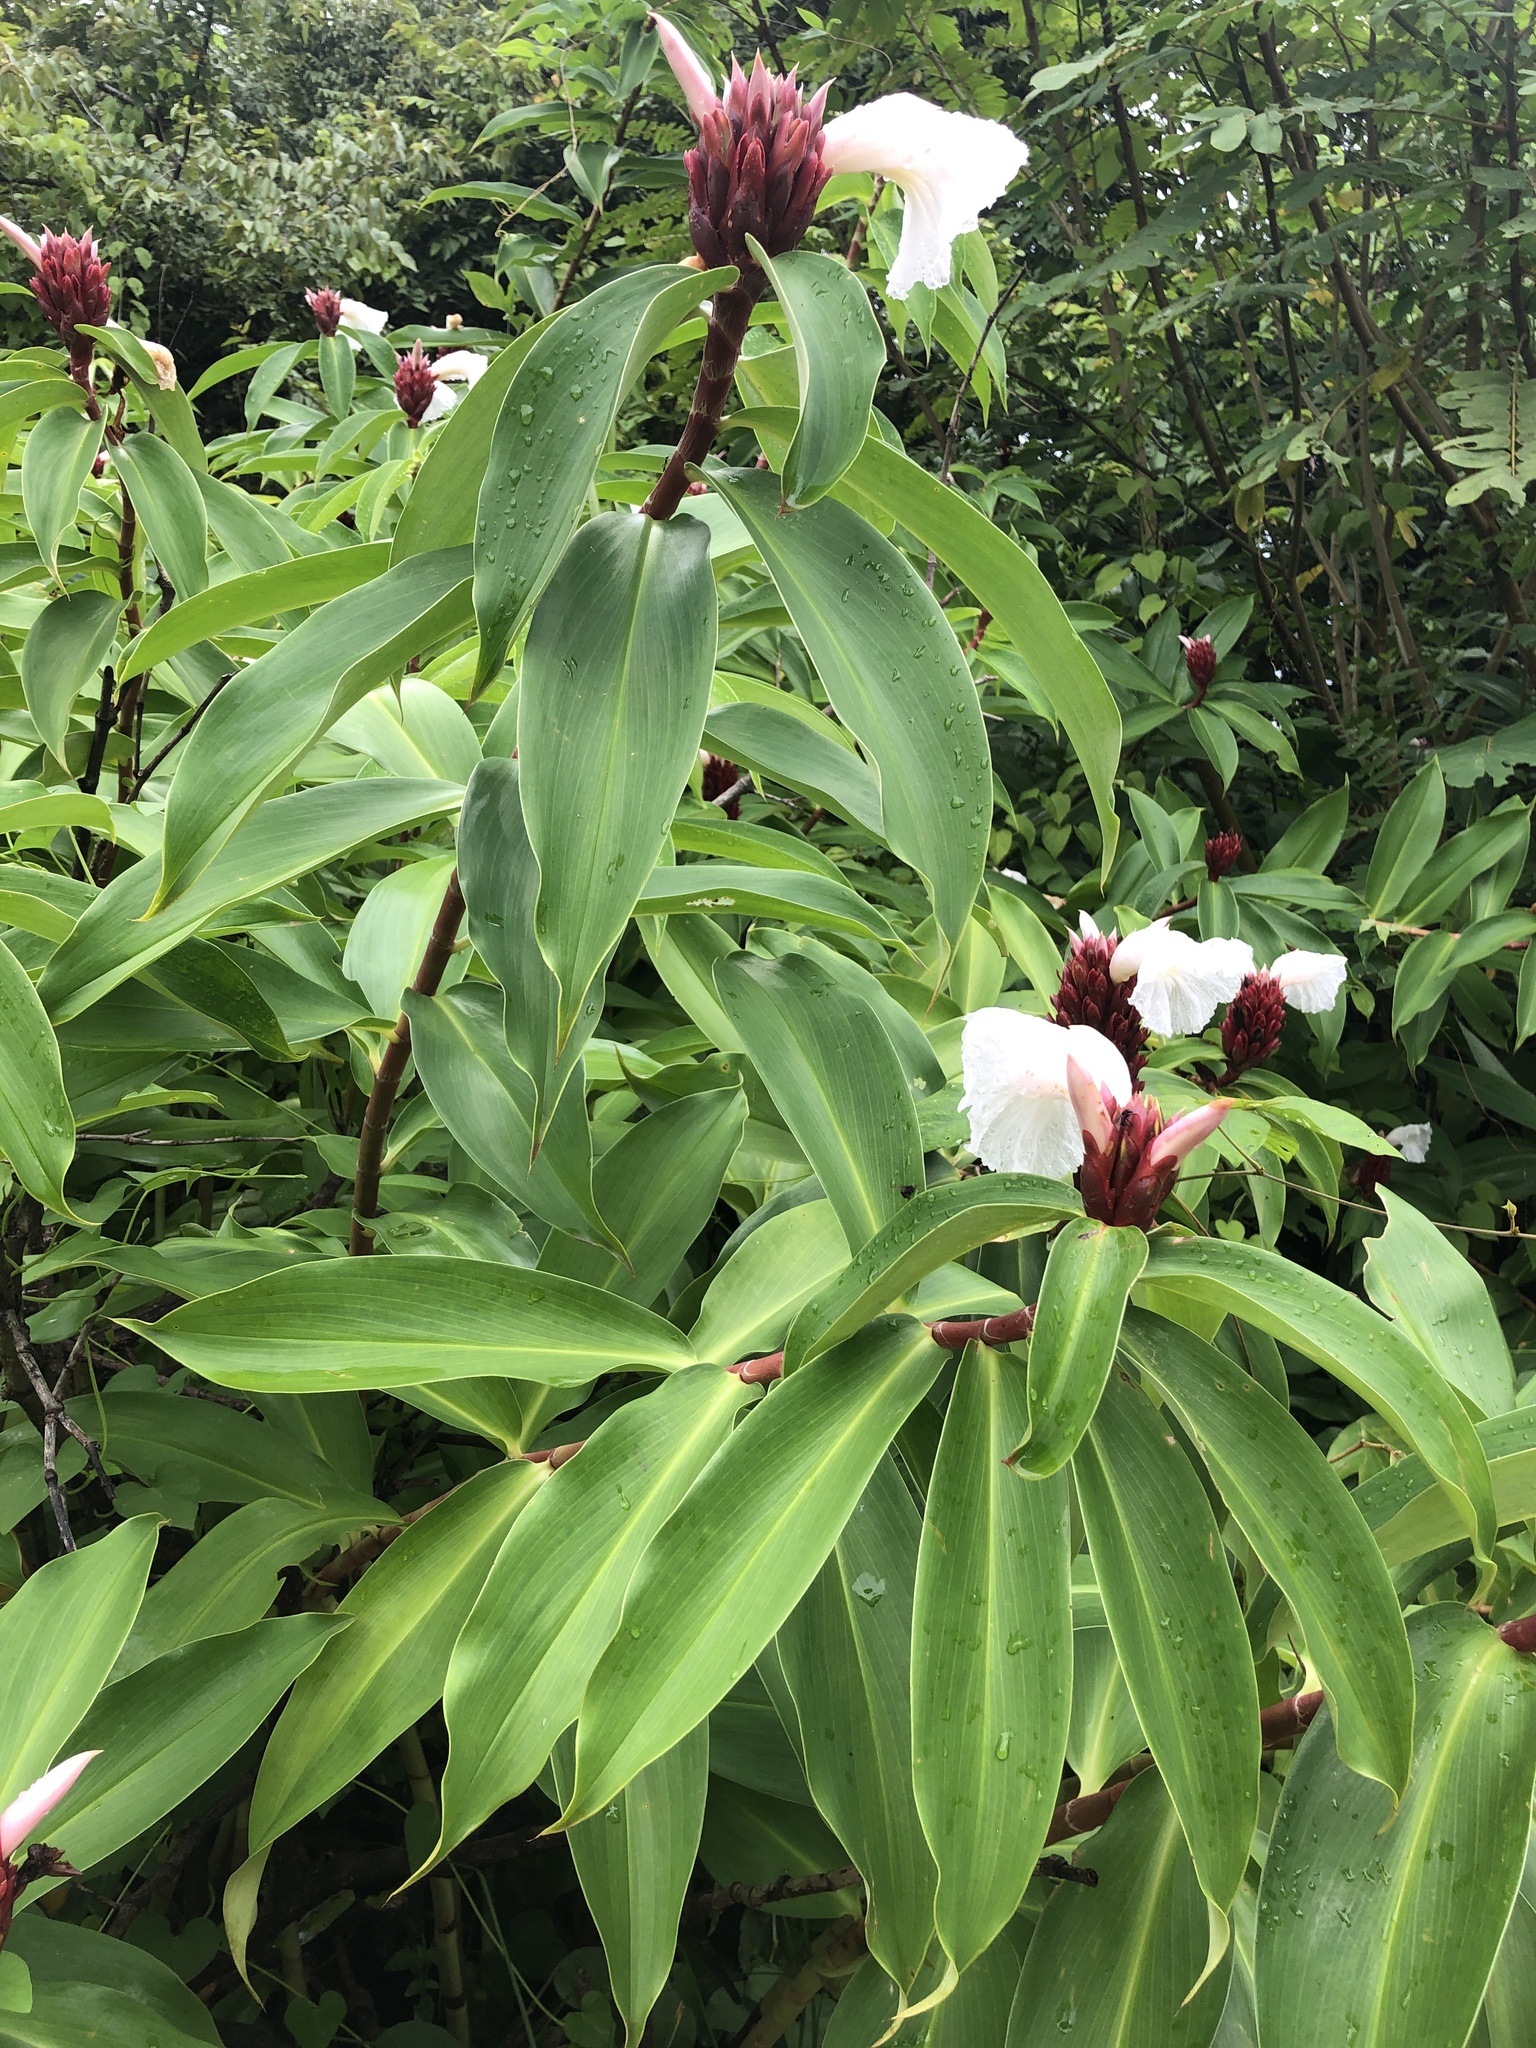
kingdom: Plantae
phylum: Tracheophyta
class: Liliopsida
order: Zingiberales
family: Costaceae
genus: Hellenia
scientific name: Hellenia speciosa
